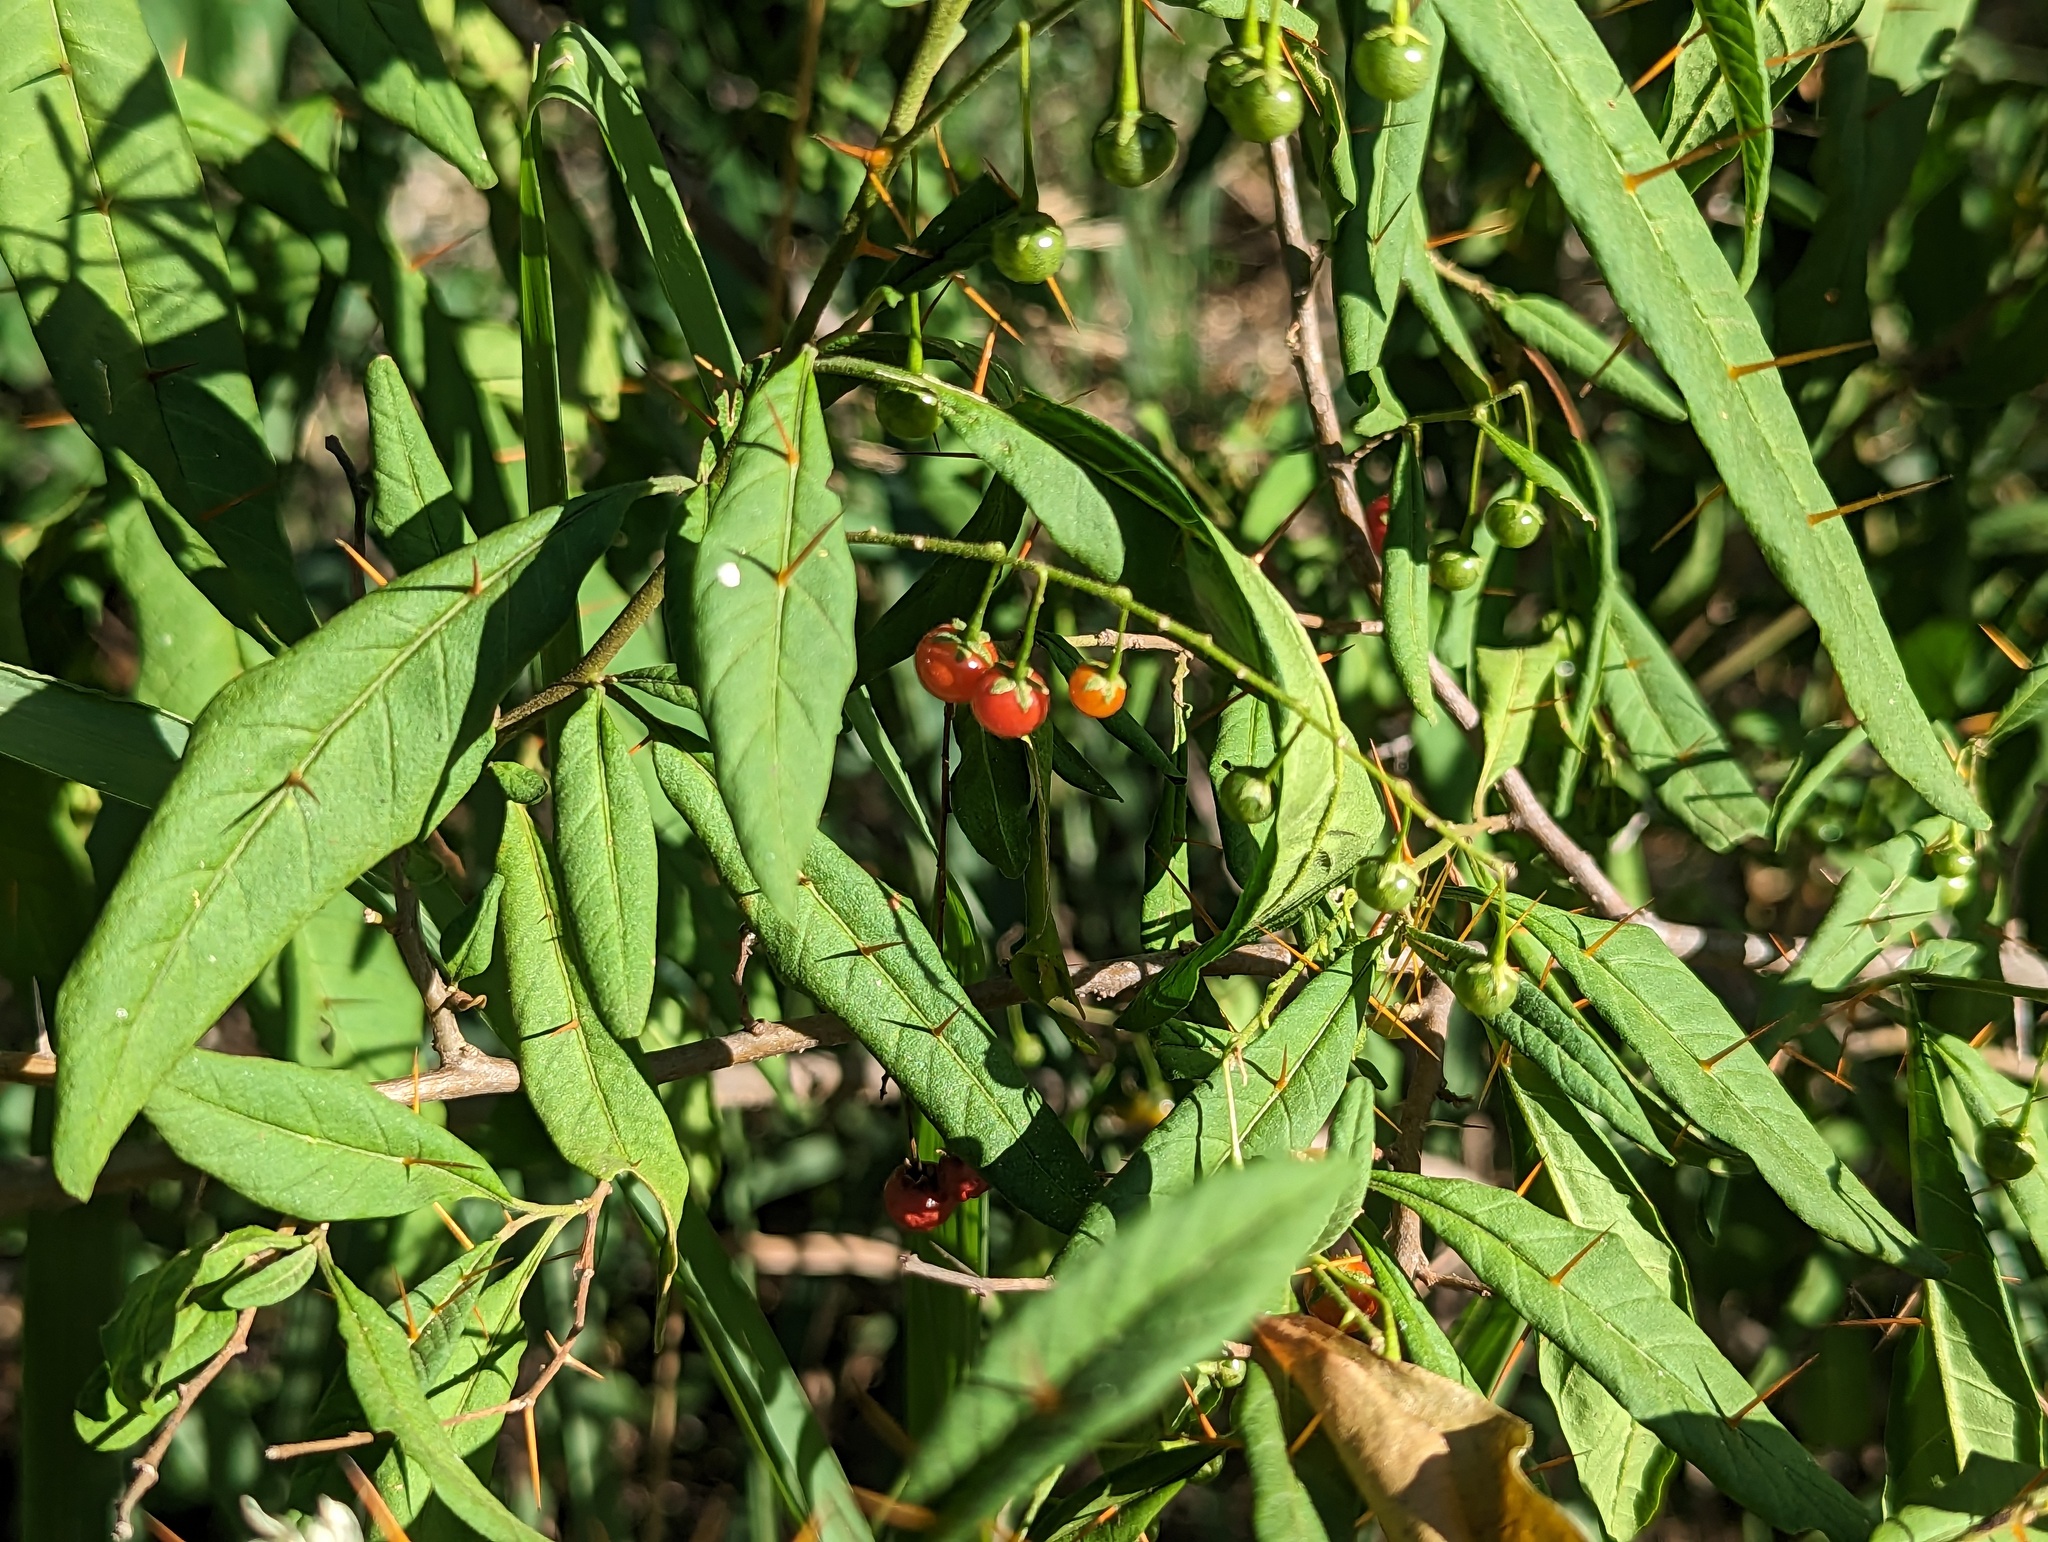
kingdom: Plantae
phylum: Tracheophyta
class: Magnoliopsida
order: Solanales
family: Solanaceae
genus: Solanum
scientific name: Solanum bahamense
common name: Canker-berry
